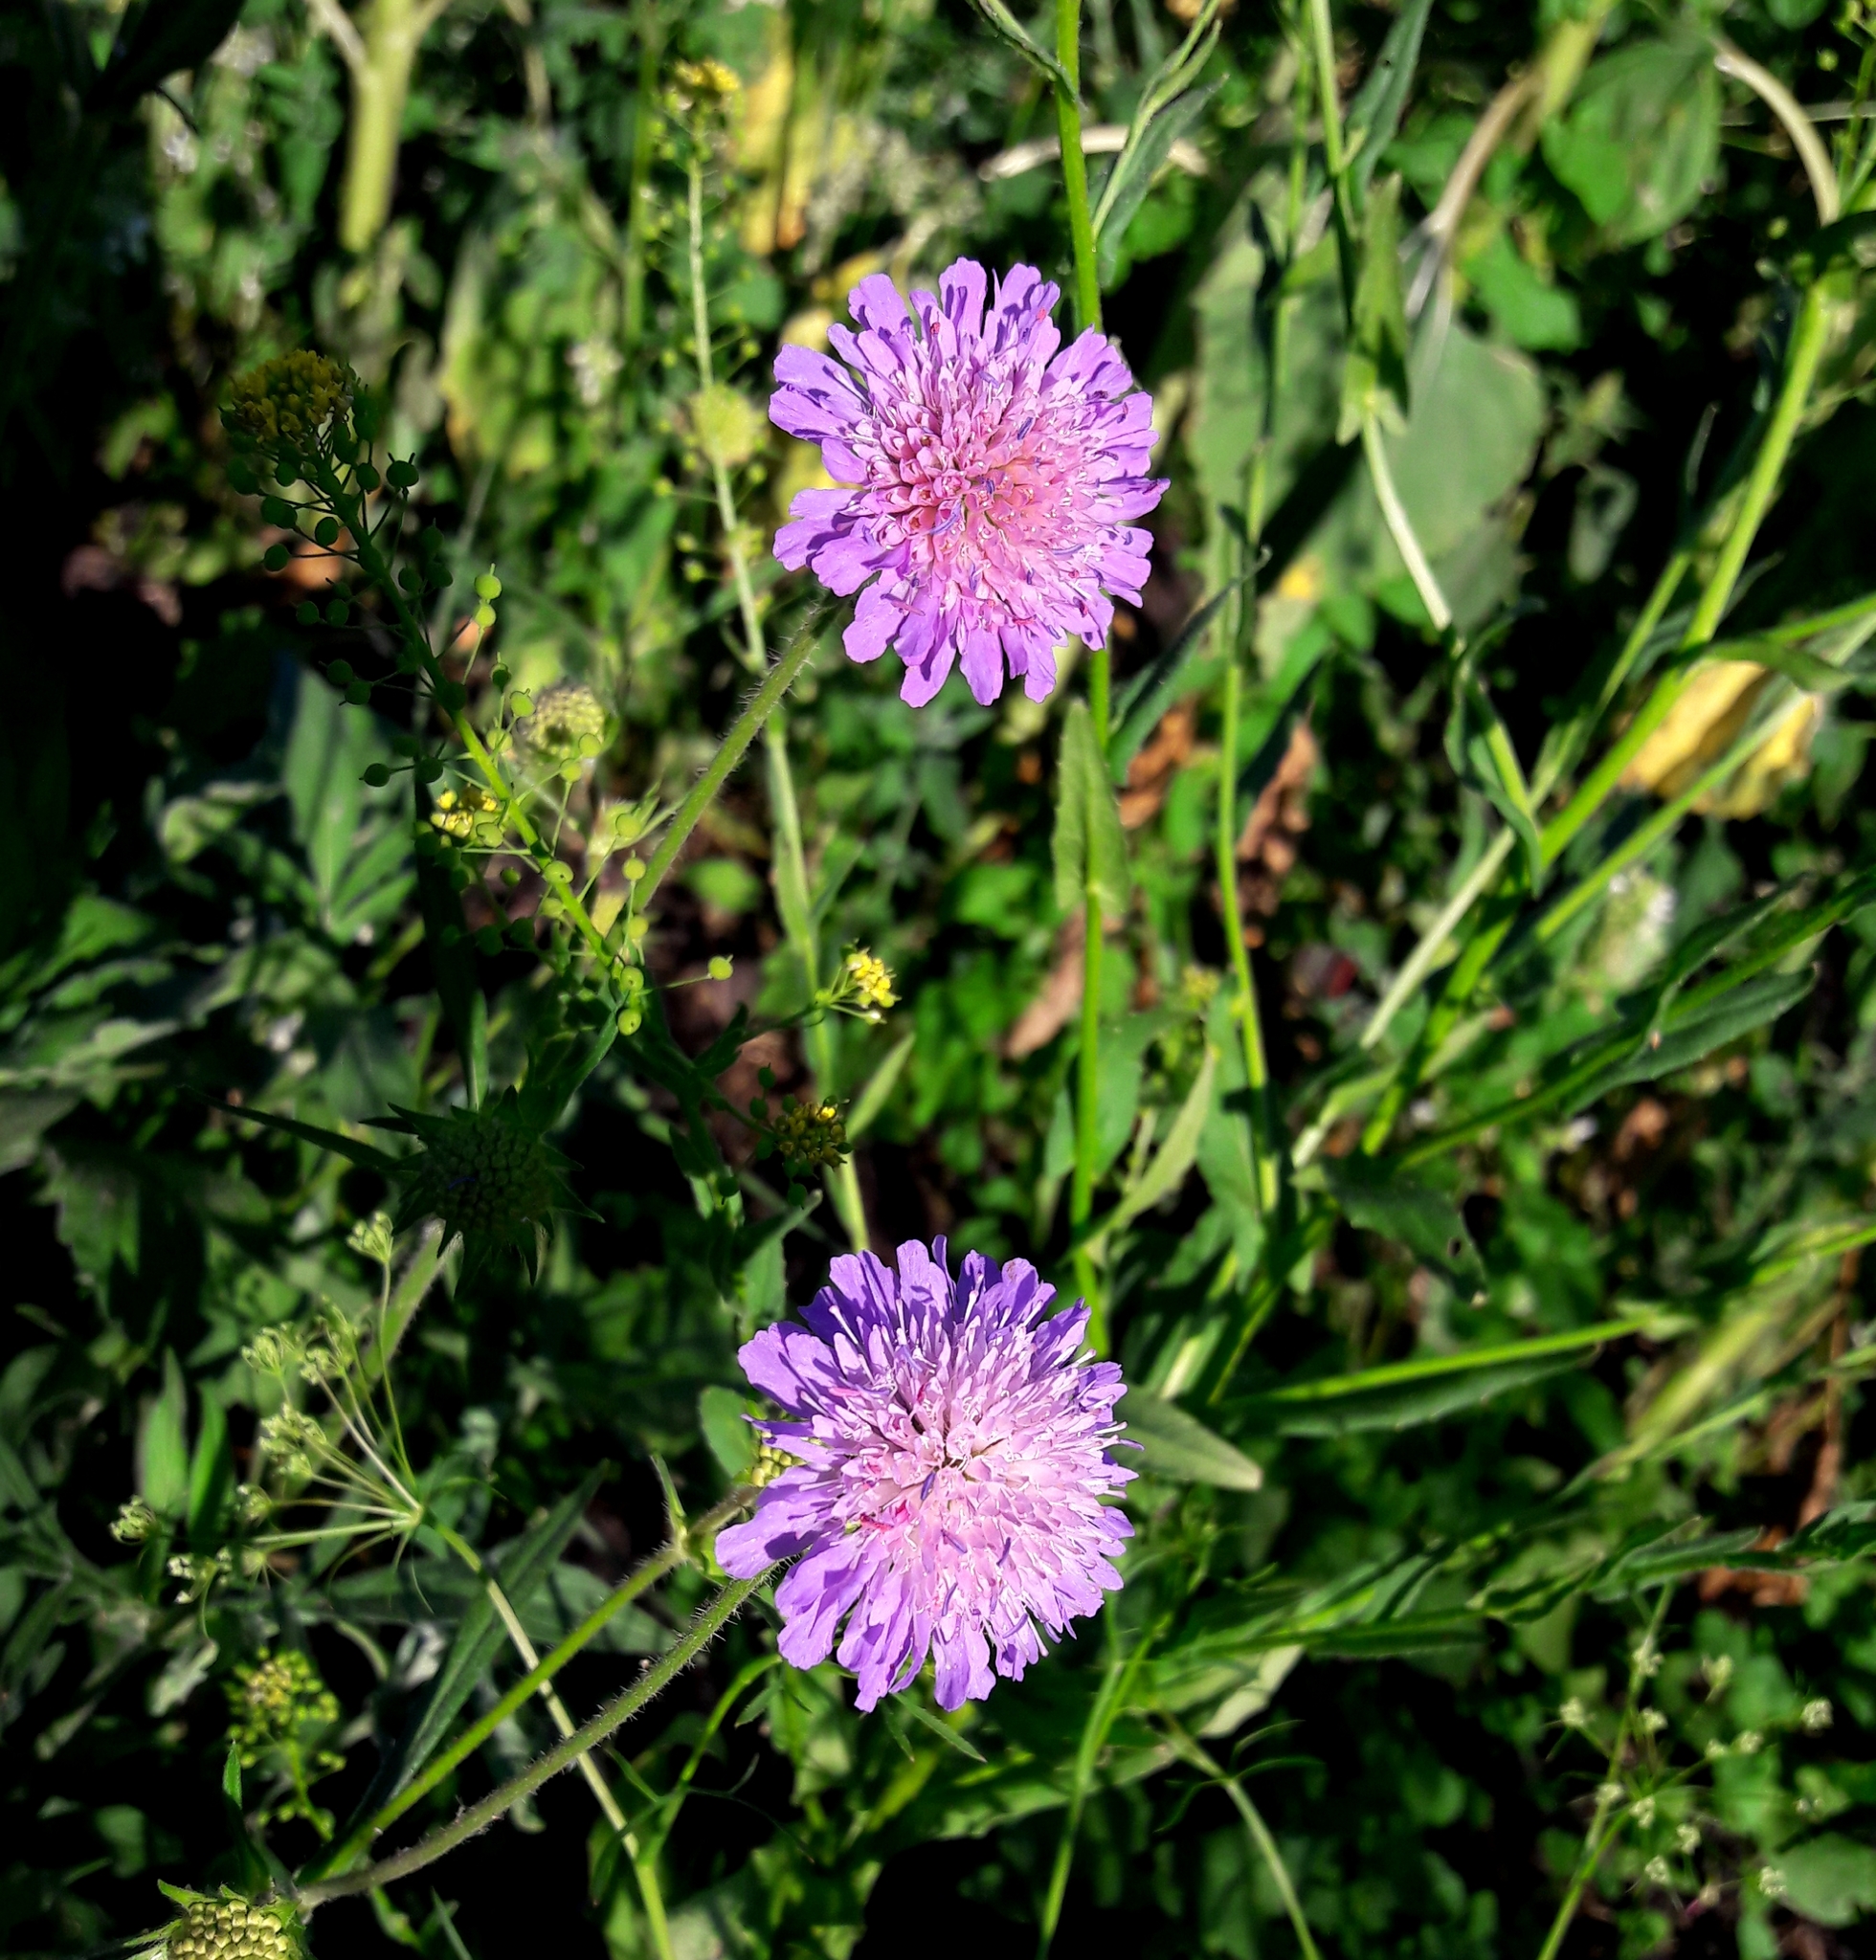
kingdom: Plantae
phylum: Tracheophyta
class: Magnoliopsida
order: Dipsacales
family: Caprifoliaceae
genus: Knautia
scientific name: Knautia arvensis
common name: Field scabiosa
